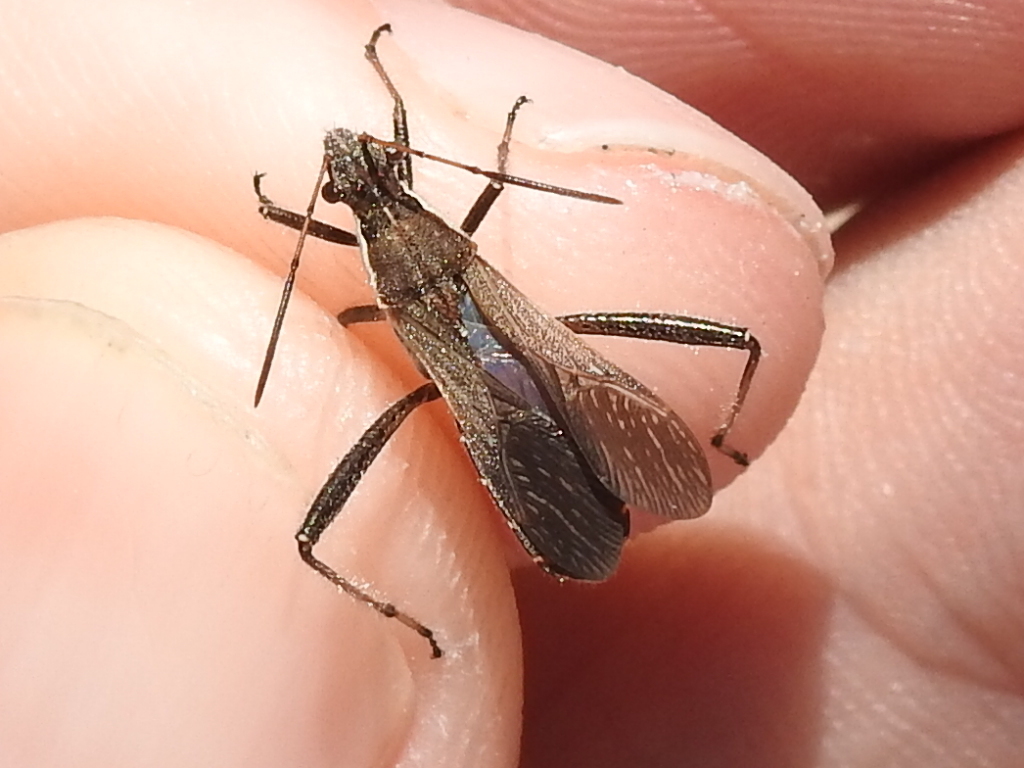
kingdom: Animalia
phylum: Arthropoda
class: Insecta
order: Hemiptera
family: Alydidae
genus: Alydus
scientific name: Alydus pilosulus
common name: Broad-headed bug
